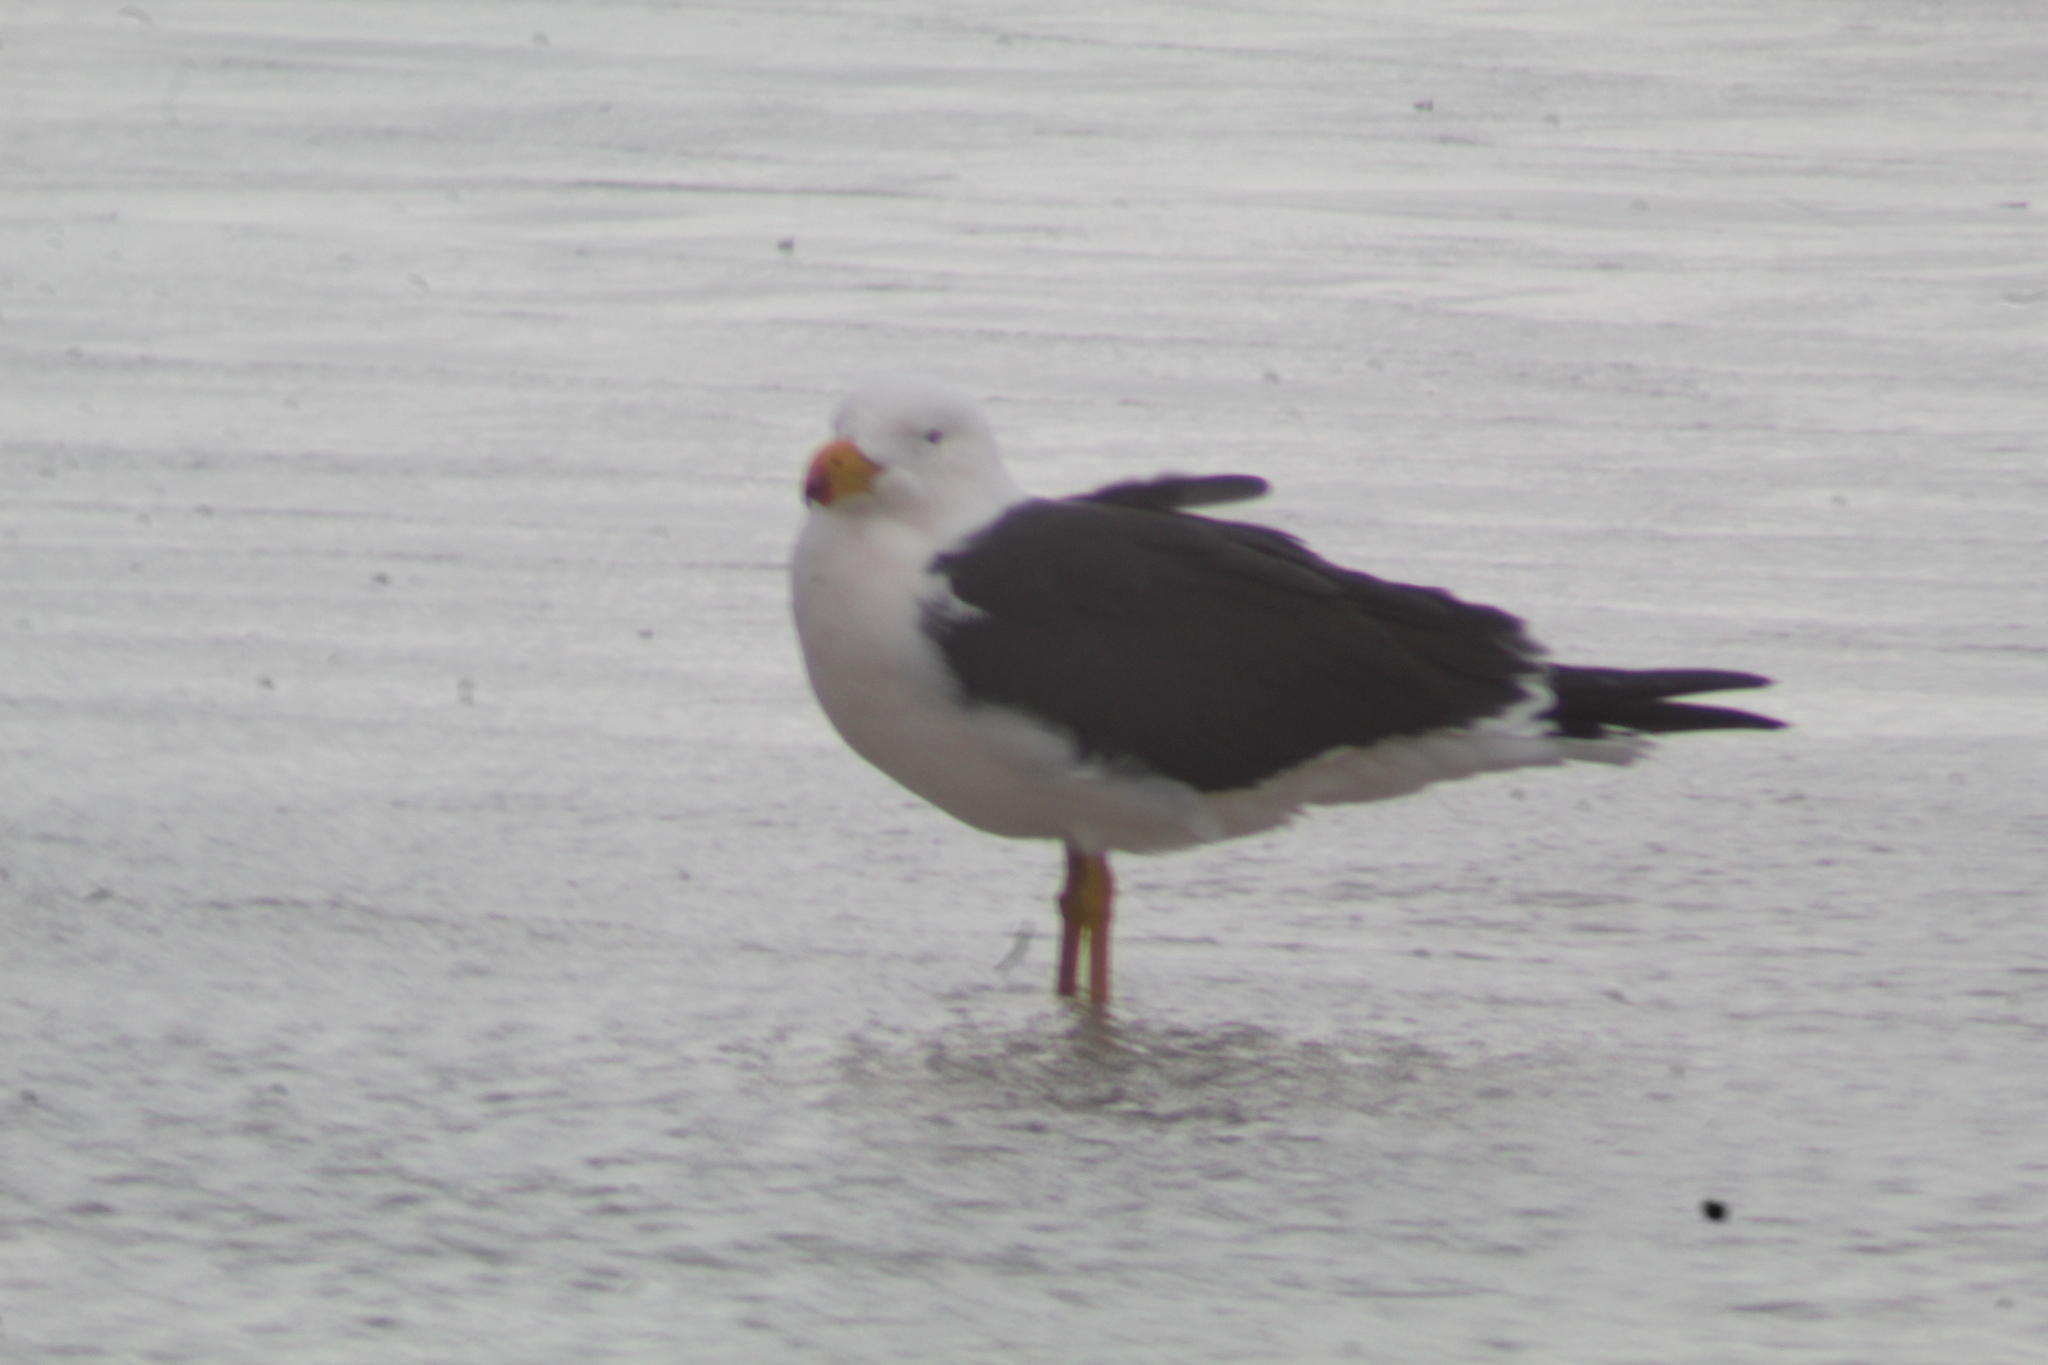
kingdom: Animalia
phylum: Chordata
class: Aves
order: Charadriiformes
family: Laridae
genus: Larus
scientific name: Larus pacificus
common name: Pacific gull
